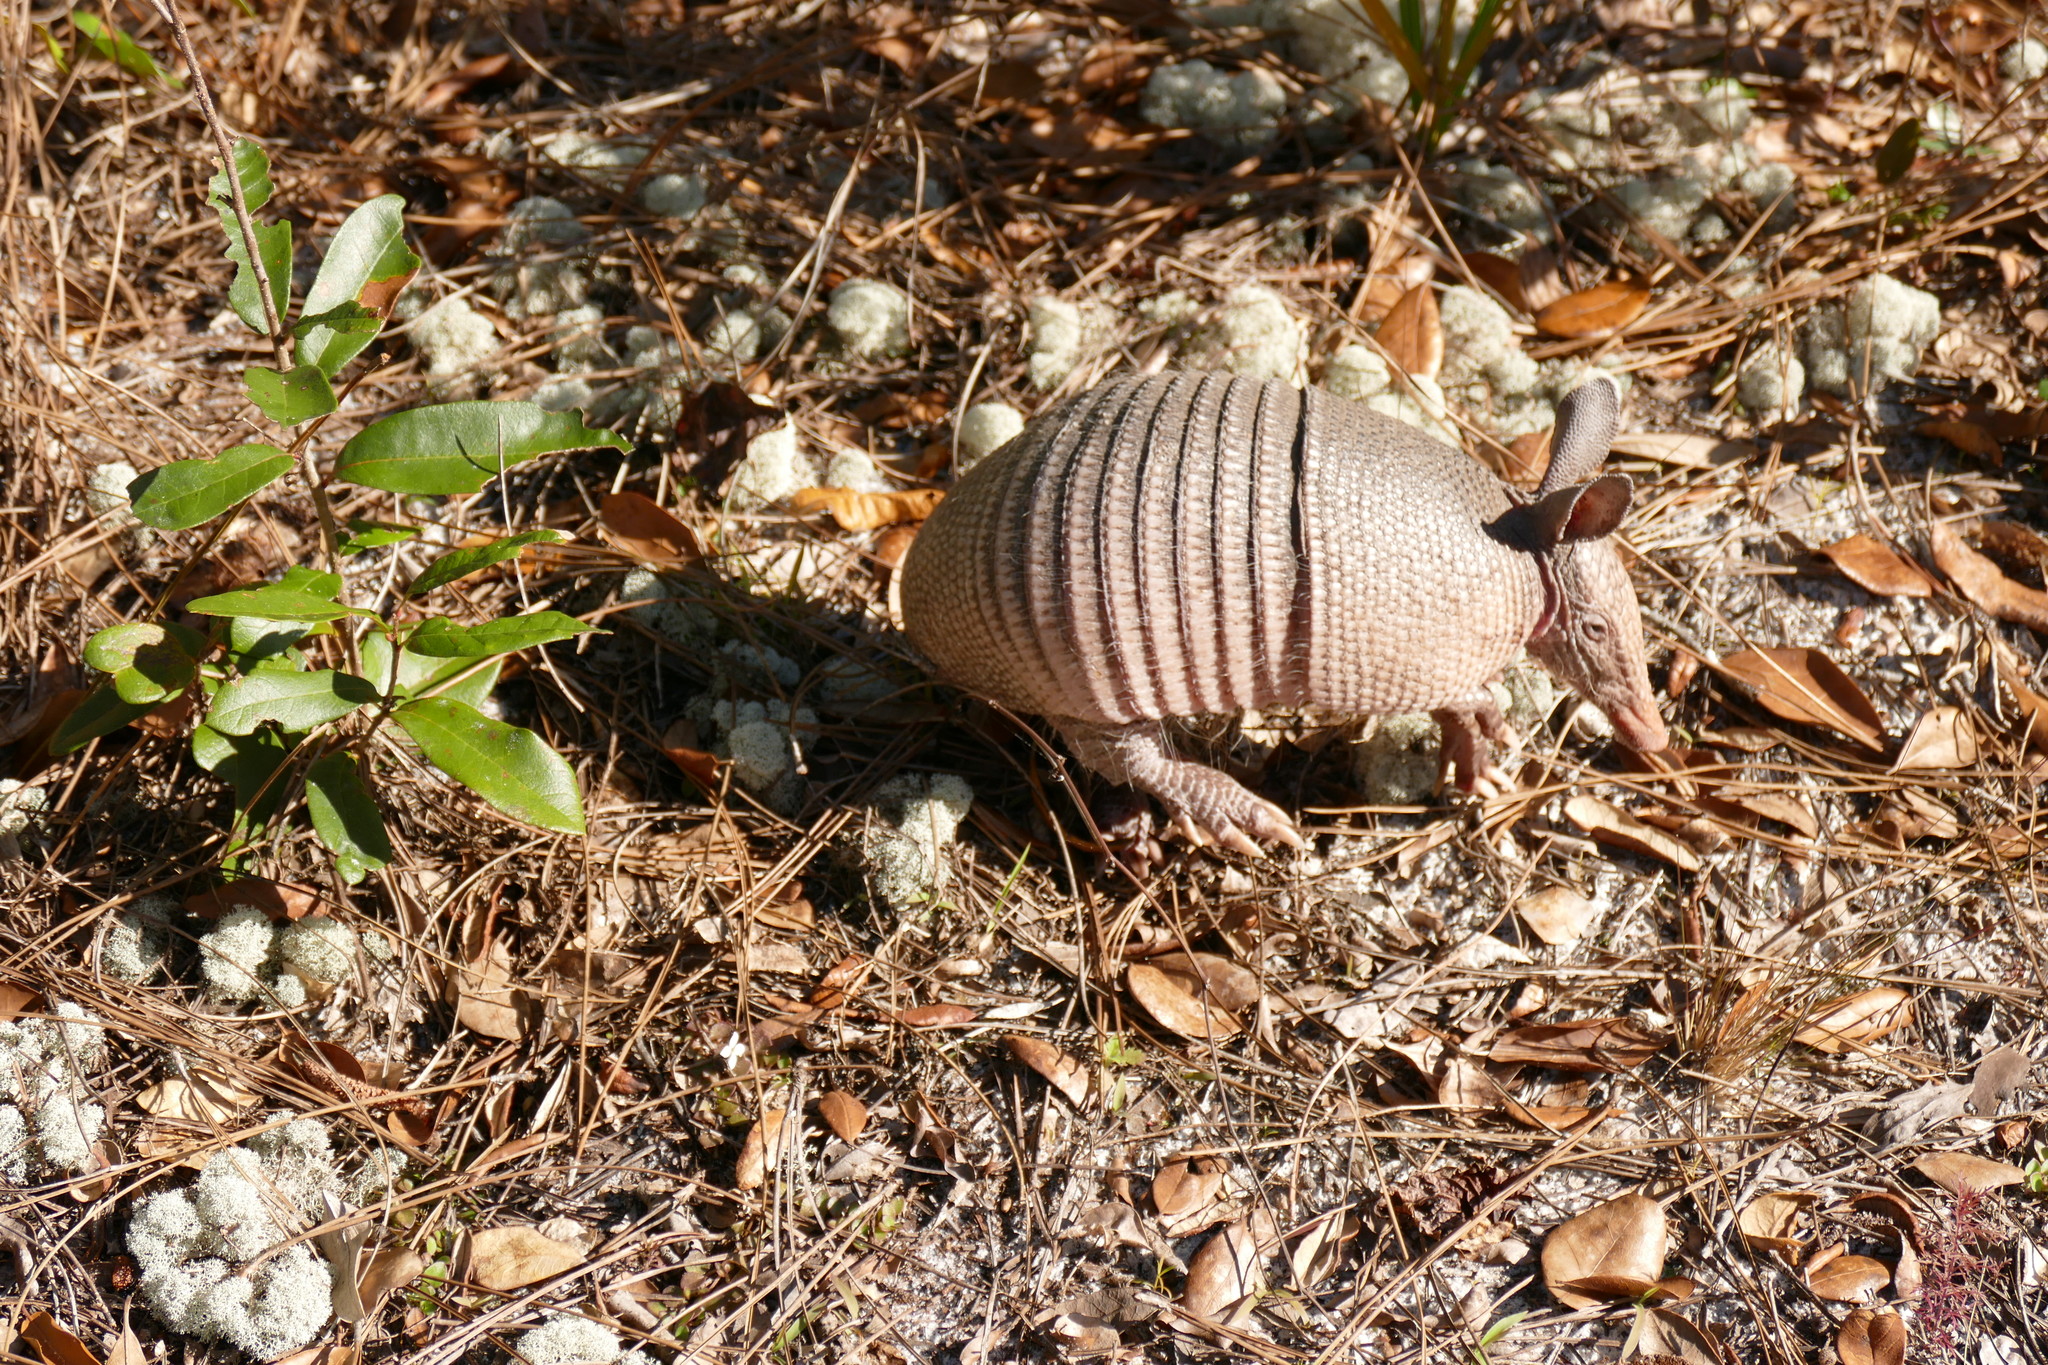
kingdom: Animalia
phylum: Chordata
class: Mammalia
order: Cingulata
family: Dasypodidae
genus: Dasypus
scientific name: Dasypus novemcinctus
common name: Nine-banded armadillo
